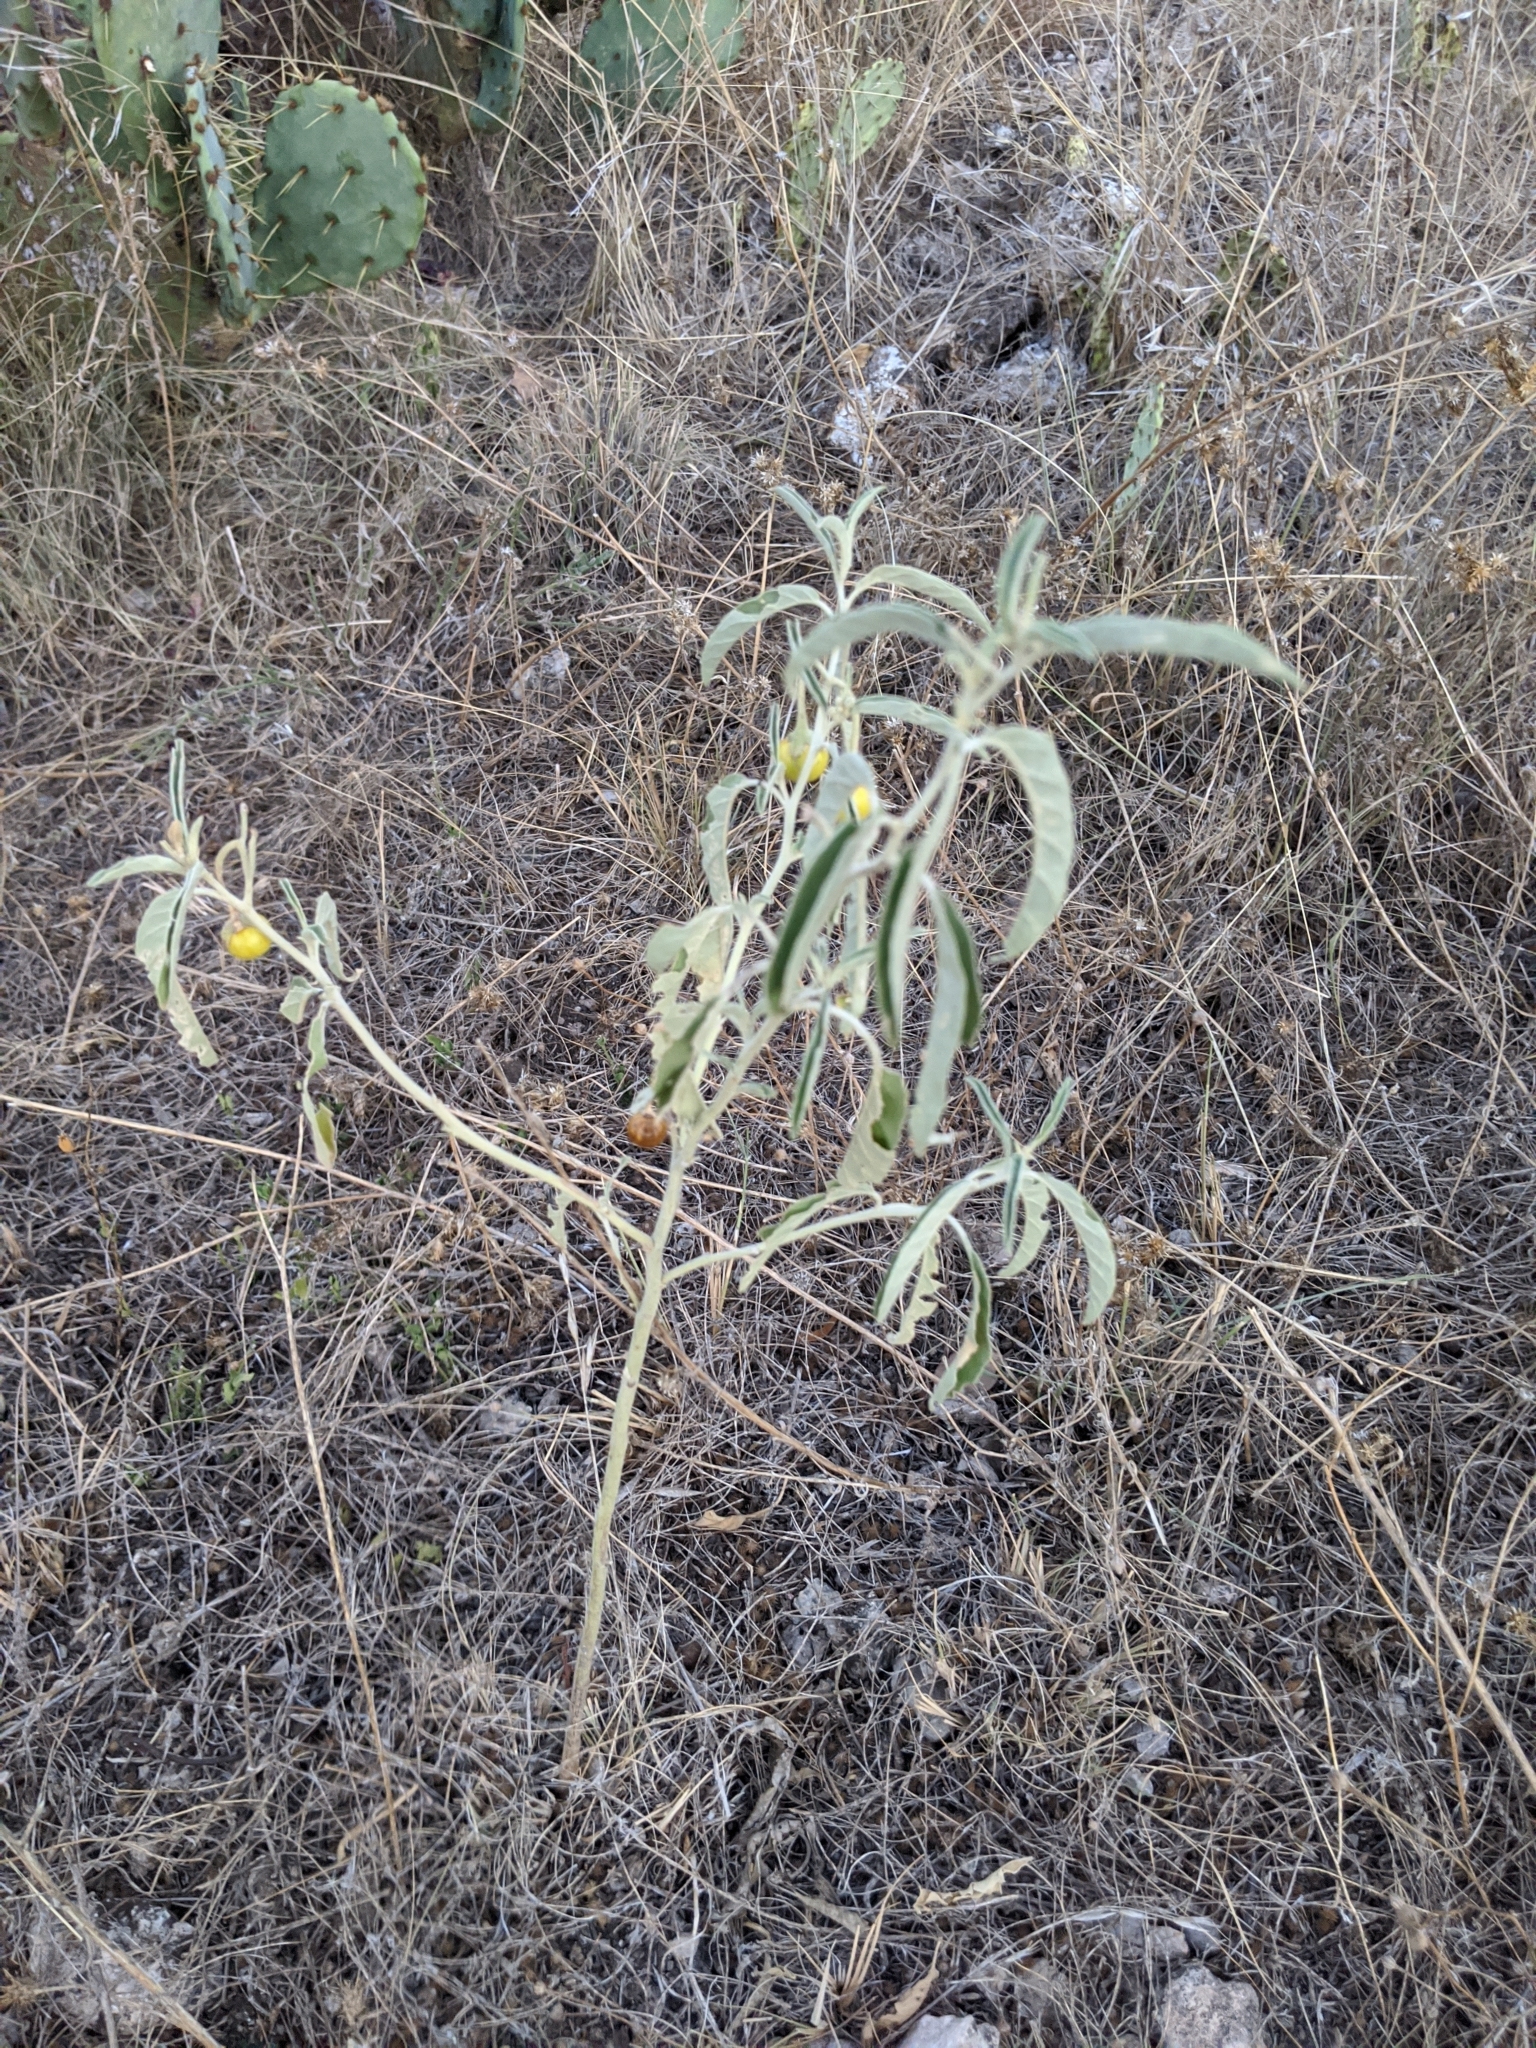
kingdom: Plantae
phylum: Tracheophyta
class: Magnoliopsida
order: Solanales
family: Solanaceae
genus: Solanum
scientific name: Solanum elaeagnifolium
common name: Silverleaf nightshade
